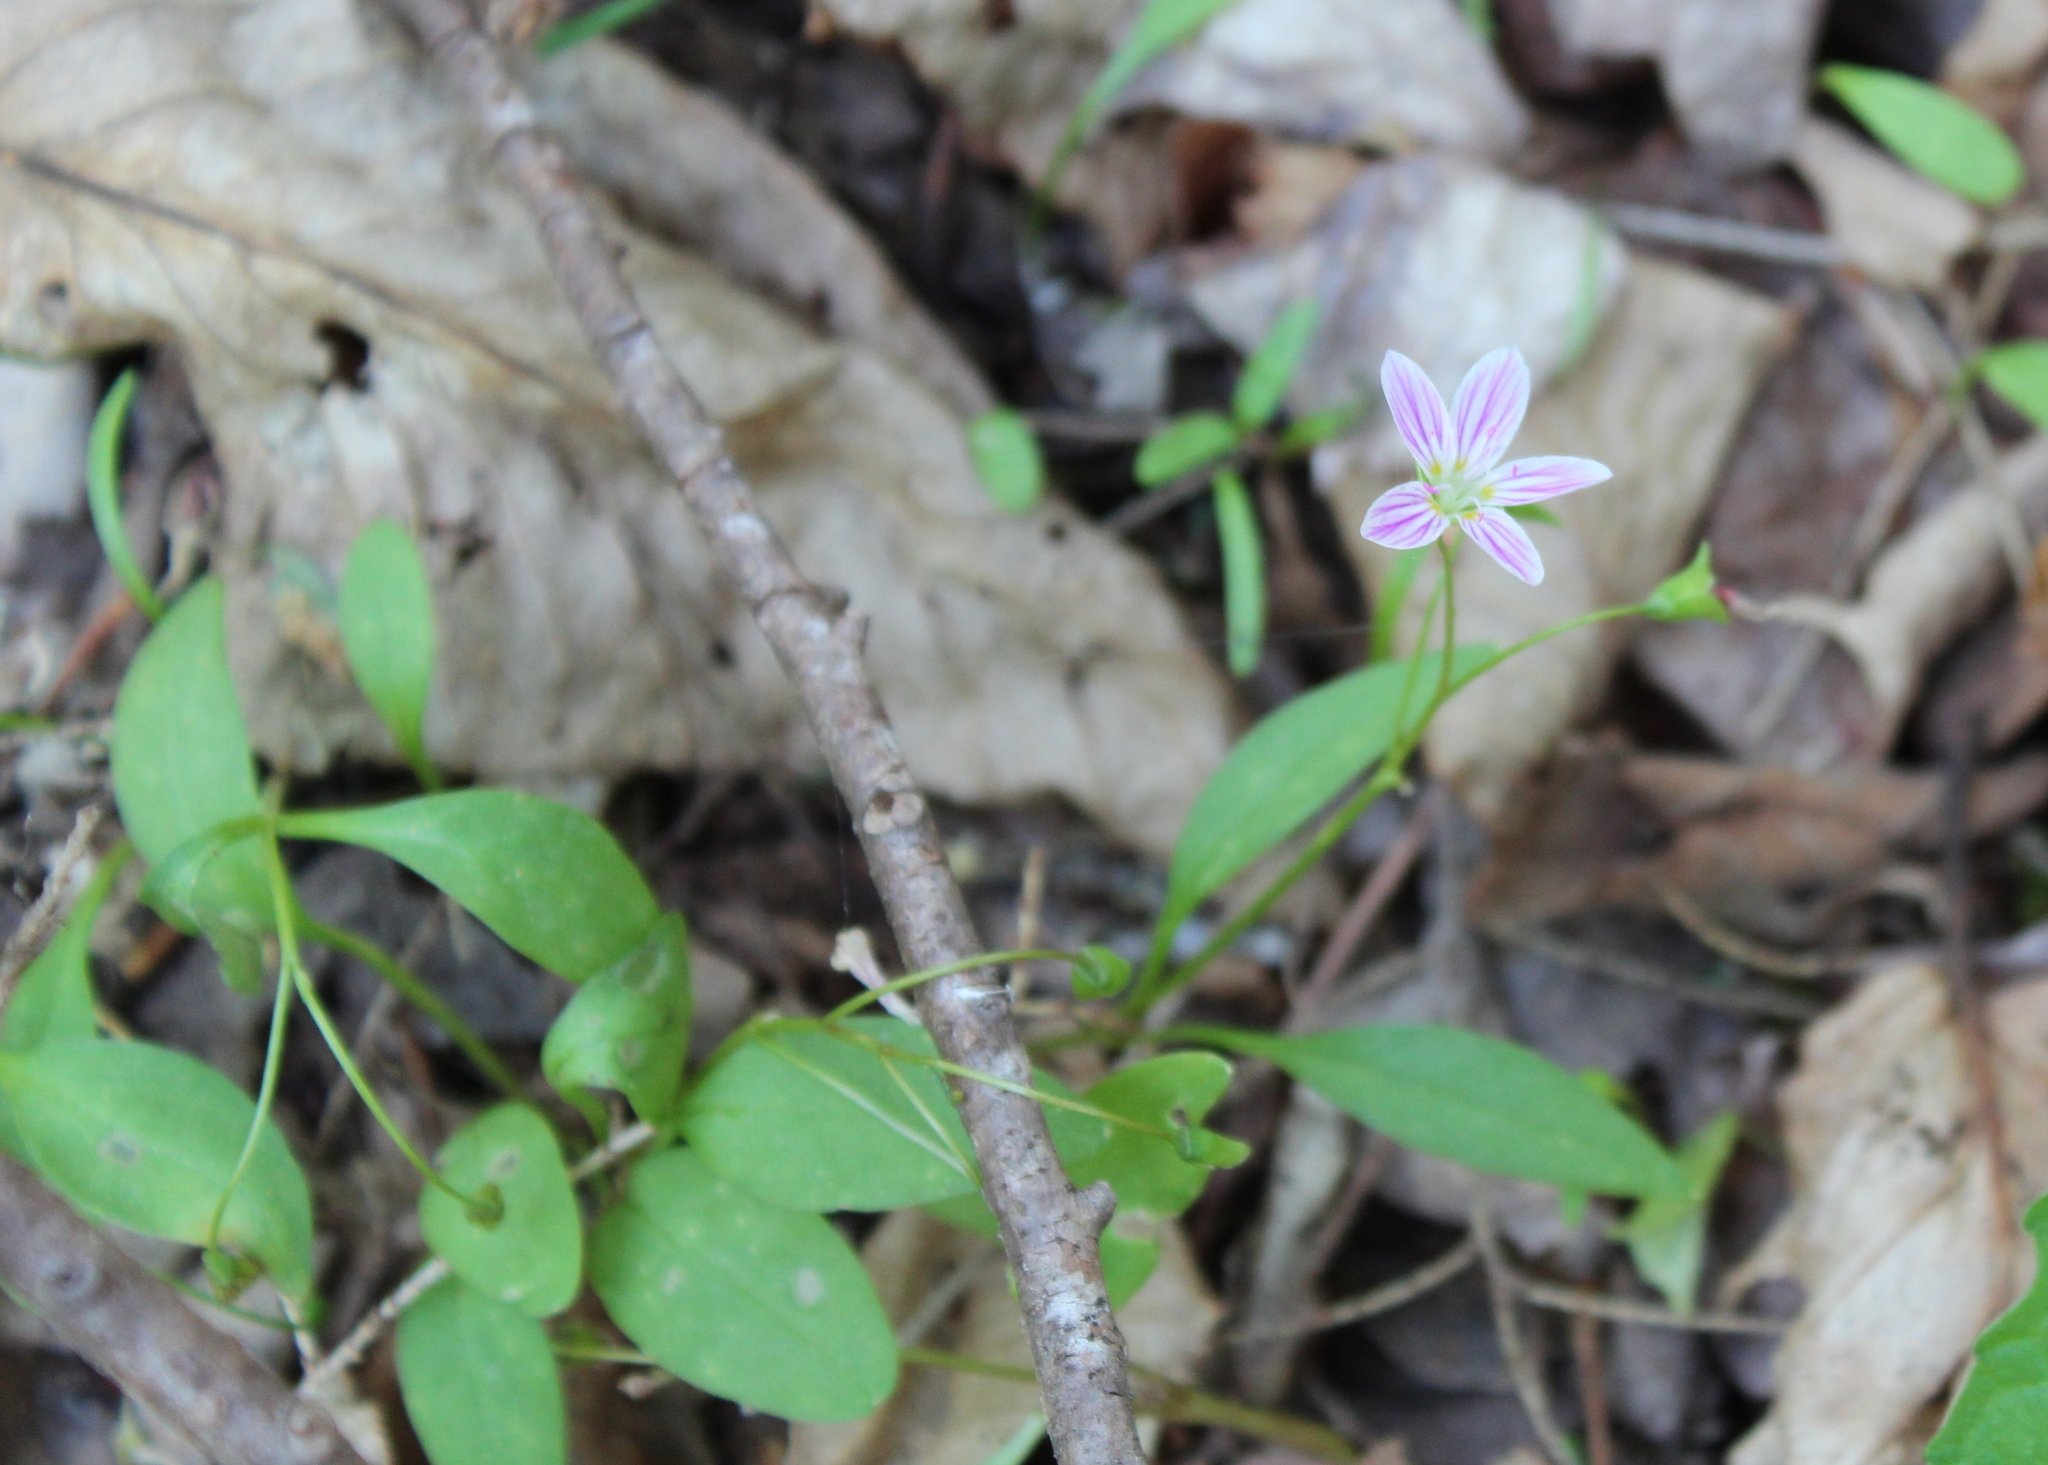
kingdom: Plantae
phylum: Tracheophyta
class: Magnoliopsida
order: Caryophyllales
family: Montiaceae
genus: Claytonia
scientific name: Claytonia caroliniana
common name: Carolina spring beauty
